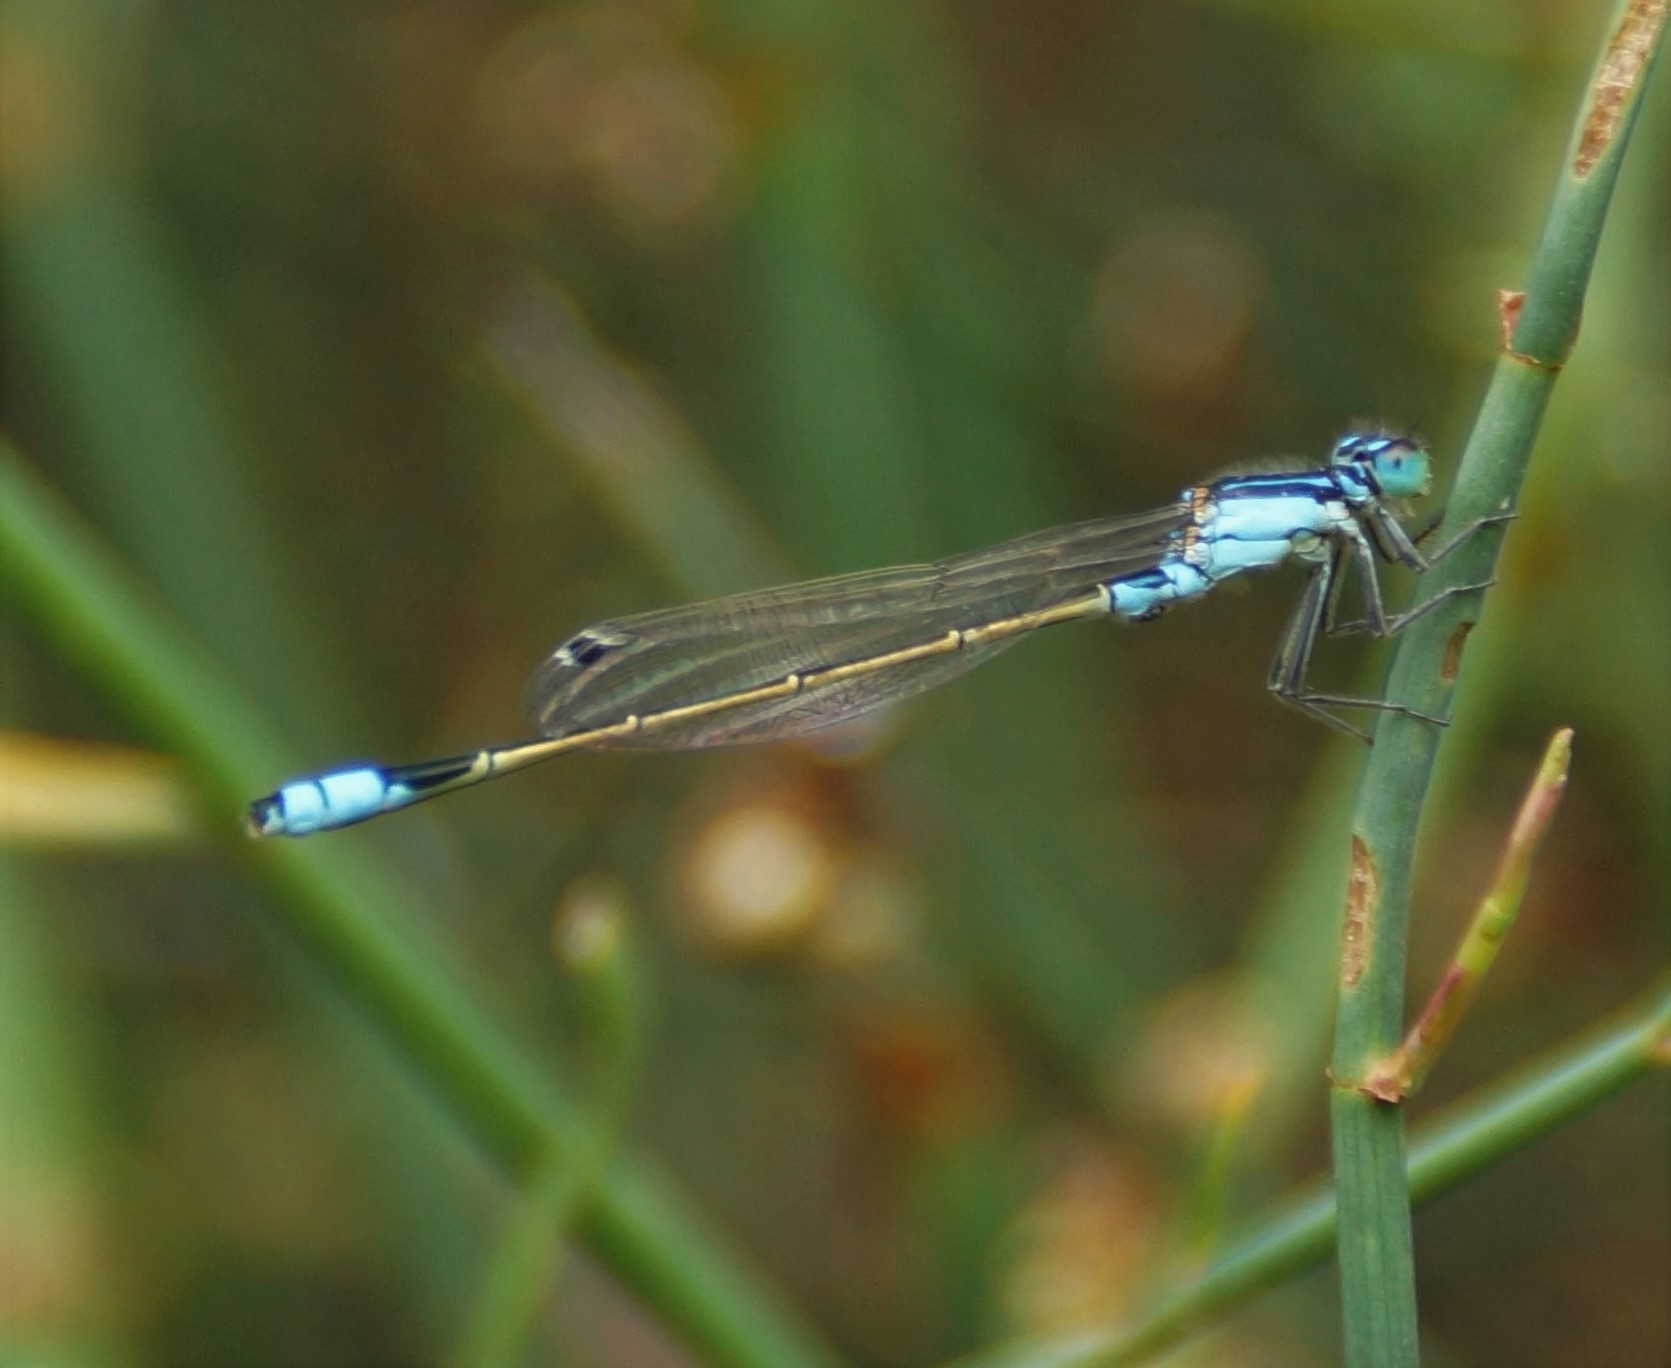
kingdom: Animalia
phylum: Arthropoda
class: Insecta
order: Odonata
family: Coenagrionidae
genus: Ischnura
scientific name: Ischnura heterosticta
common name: Common bluetail
